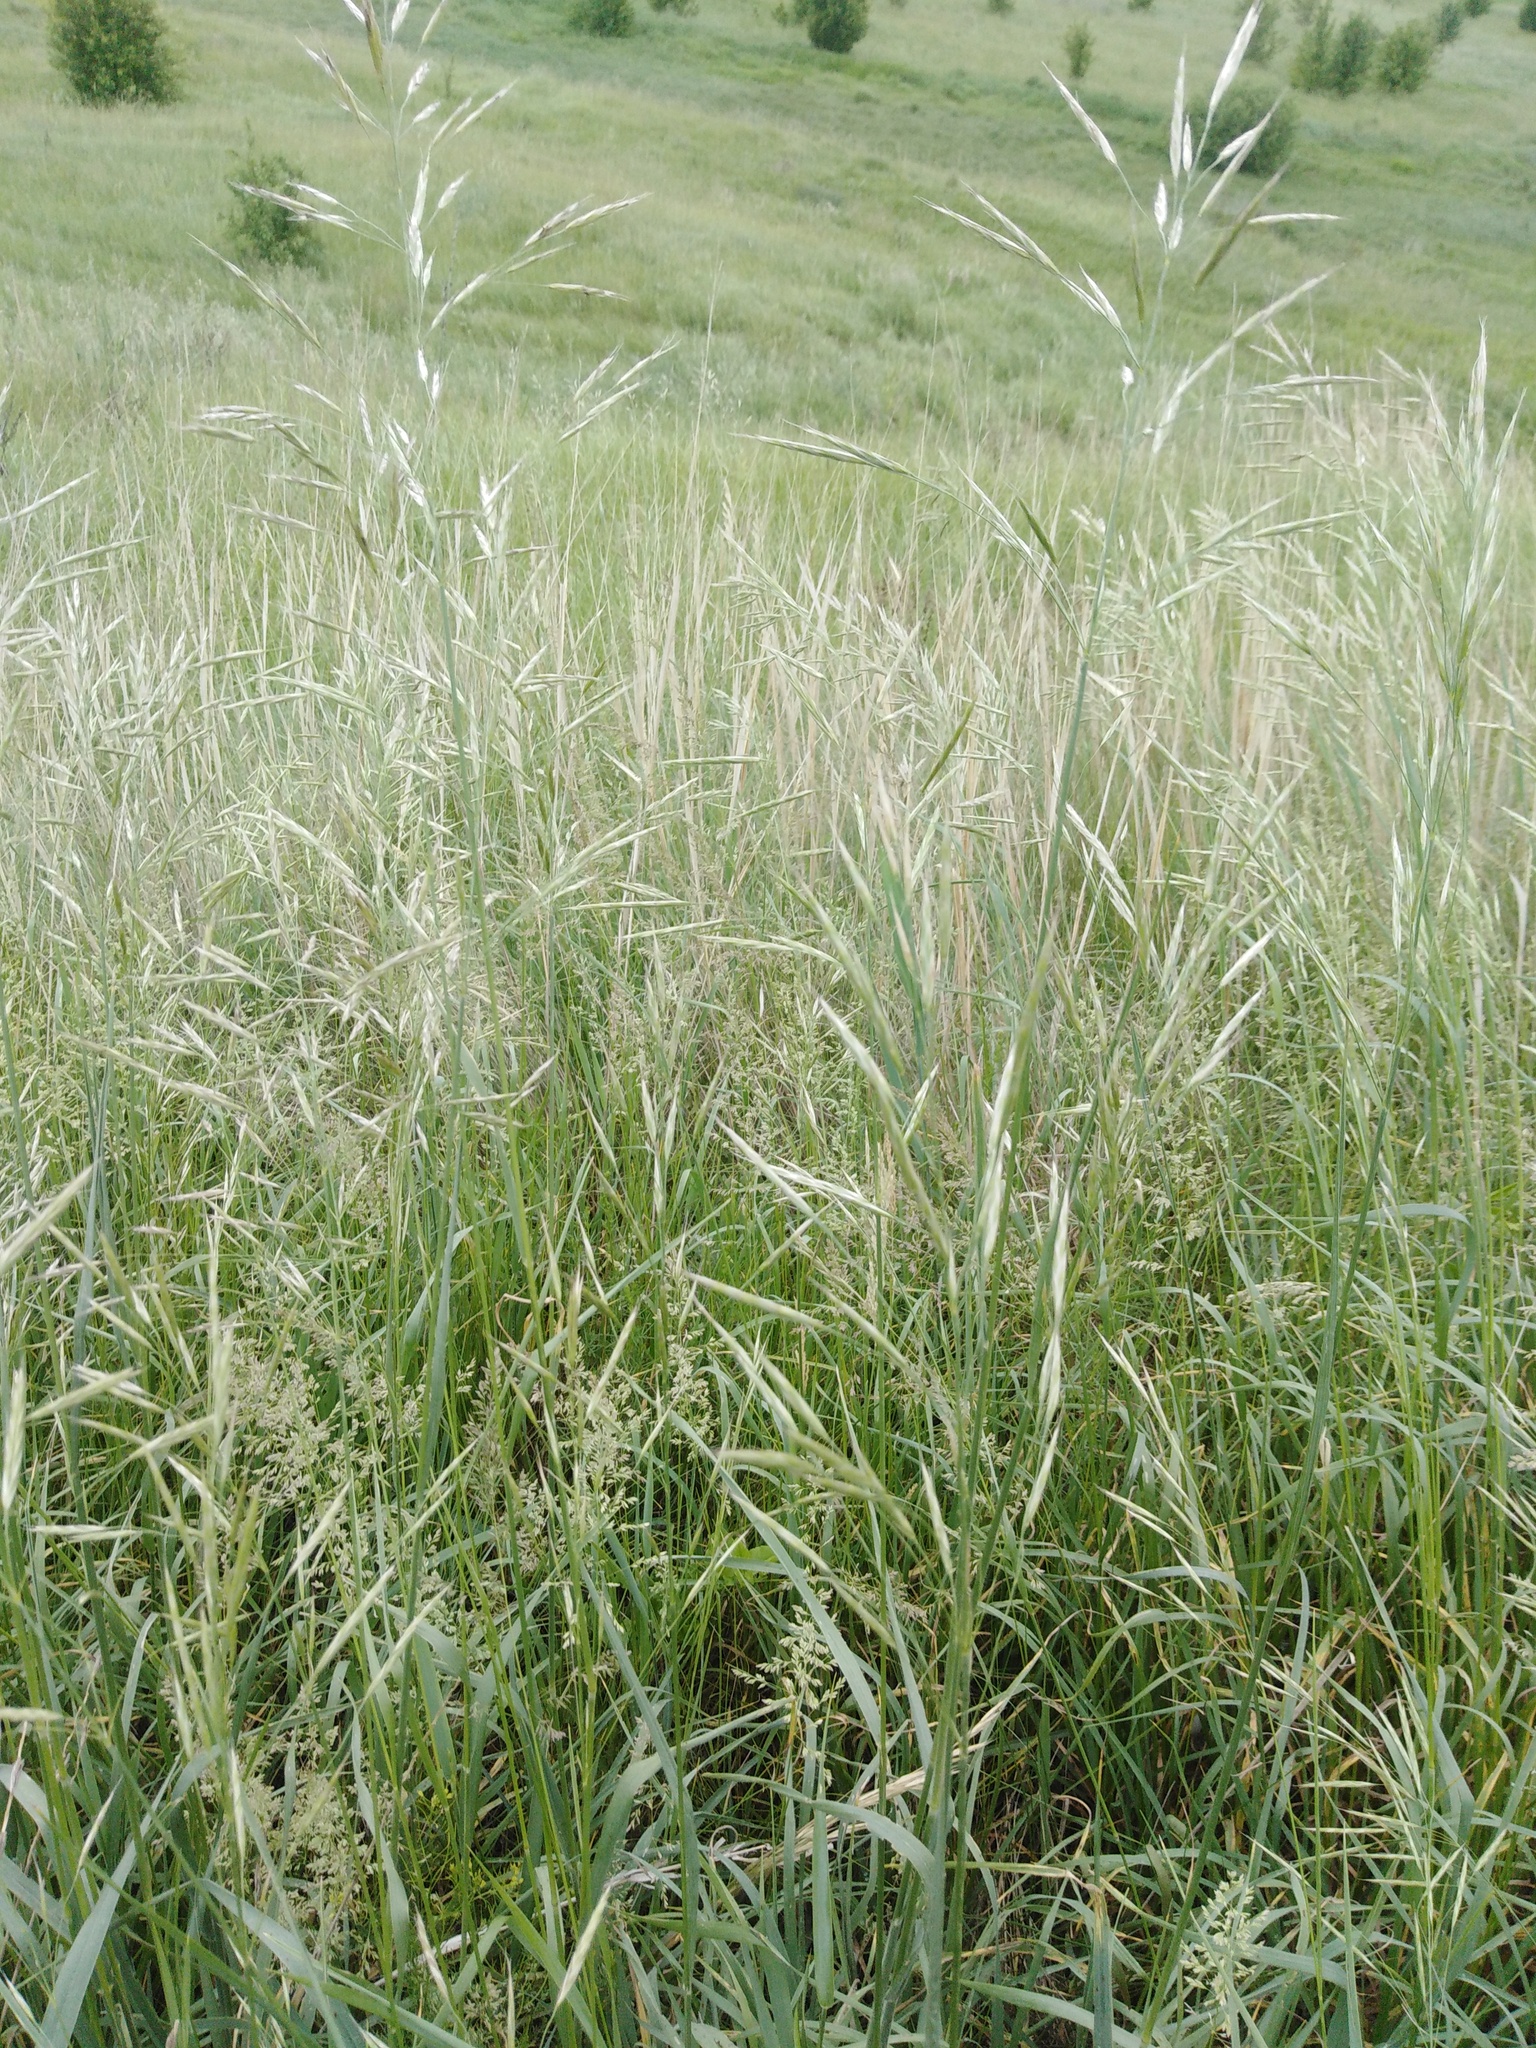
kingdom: Plantae
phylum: Tracheophyta
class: Liliopsida
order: Poales
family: Poaceae
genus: Bromus
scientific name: Bromus riparius
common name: Meadow brome
